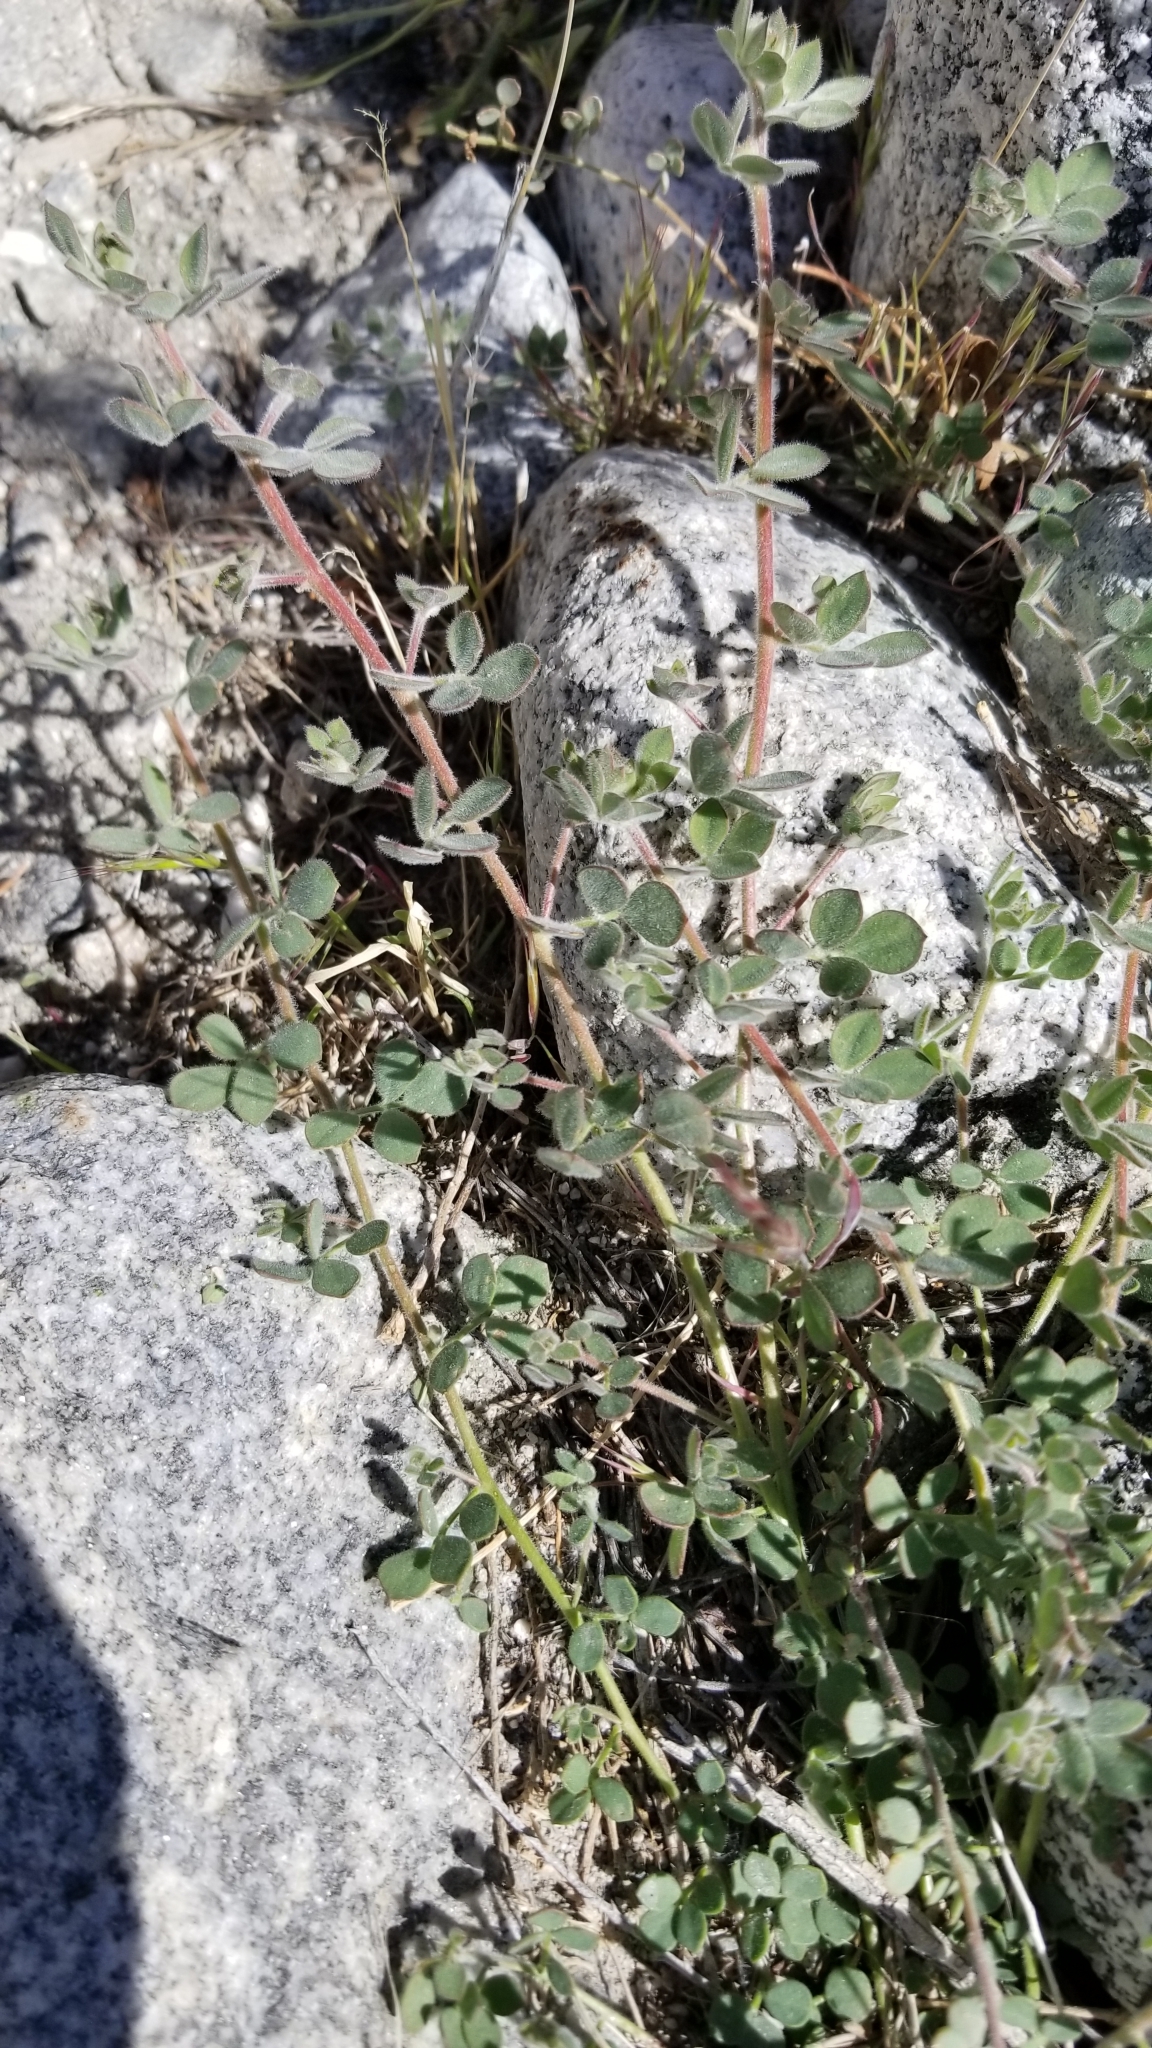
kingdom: Plantae
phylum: Tracheophyta
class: Magnoliopsida
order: Fabales
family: Fabaceae
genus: Acmispon
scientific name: Acmispon tomentosus
